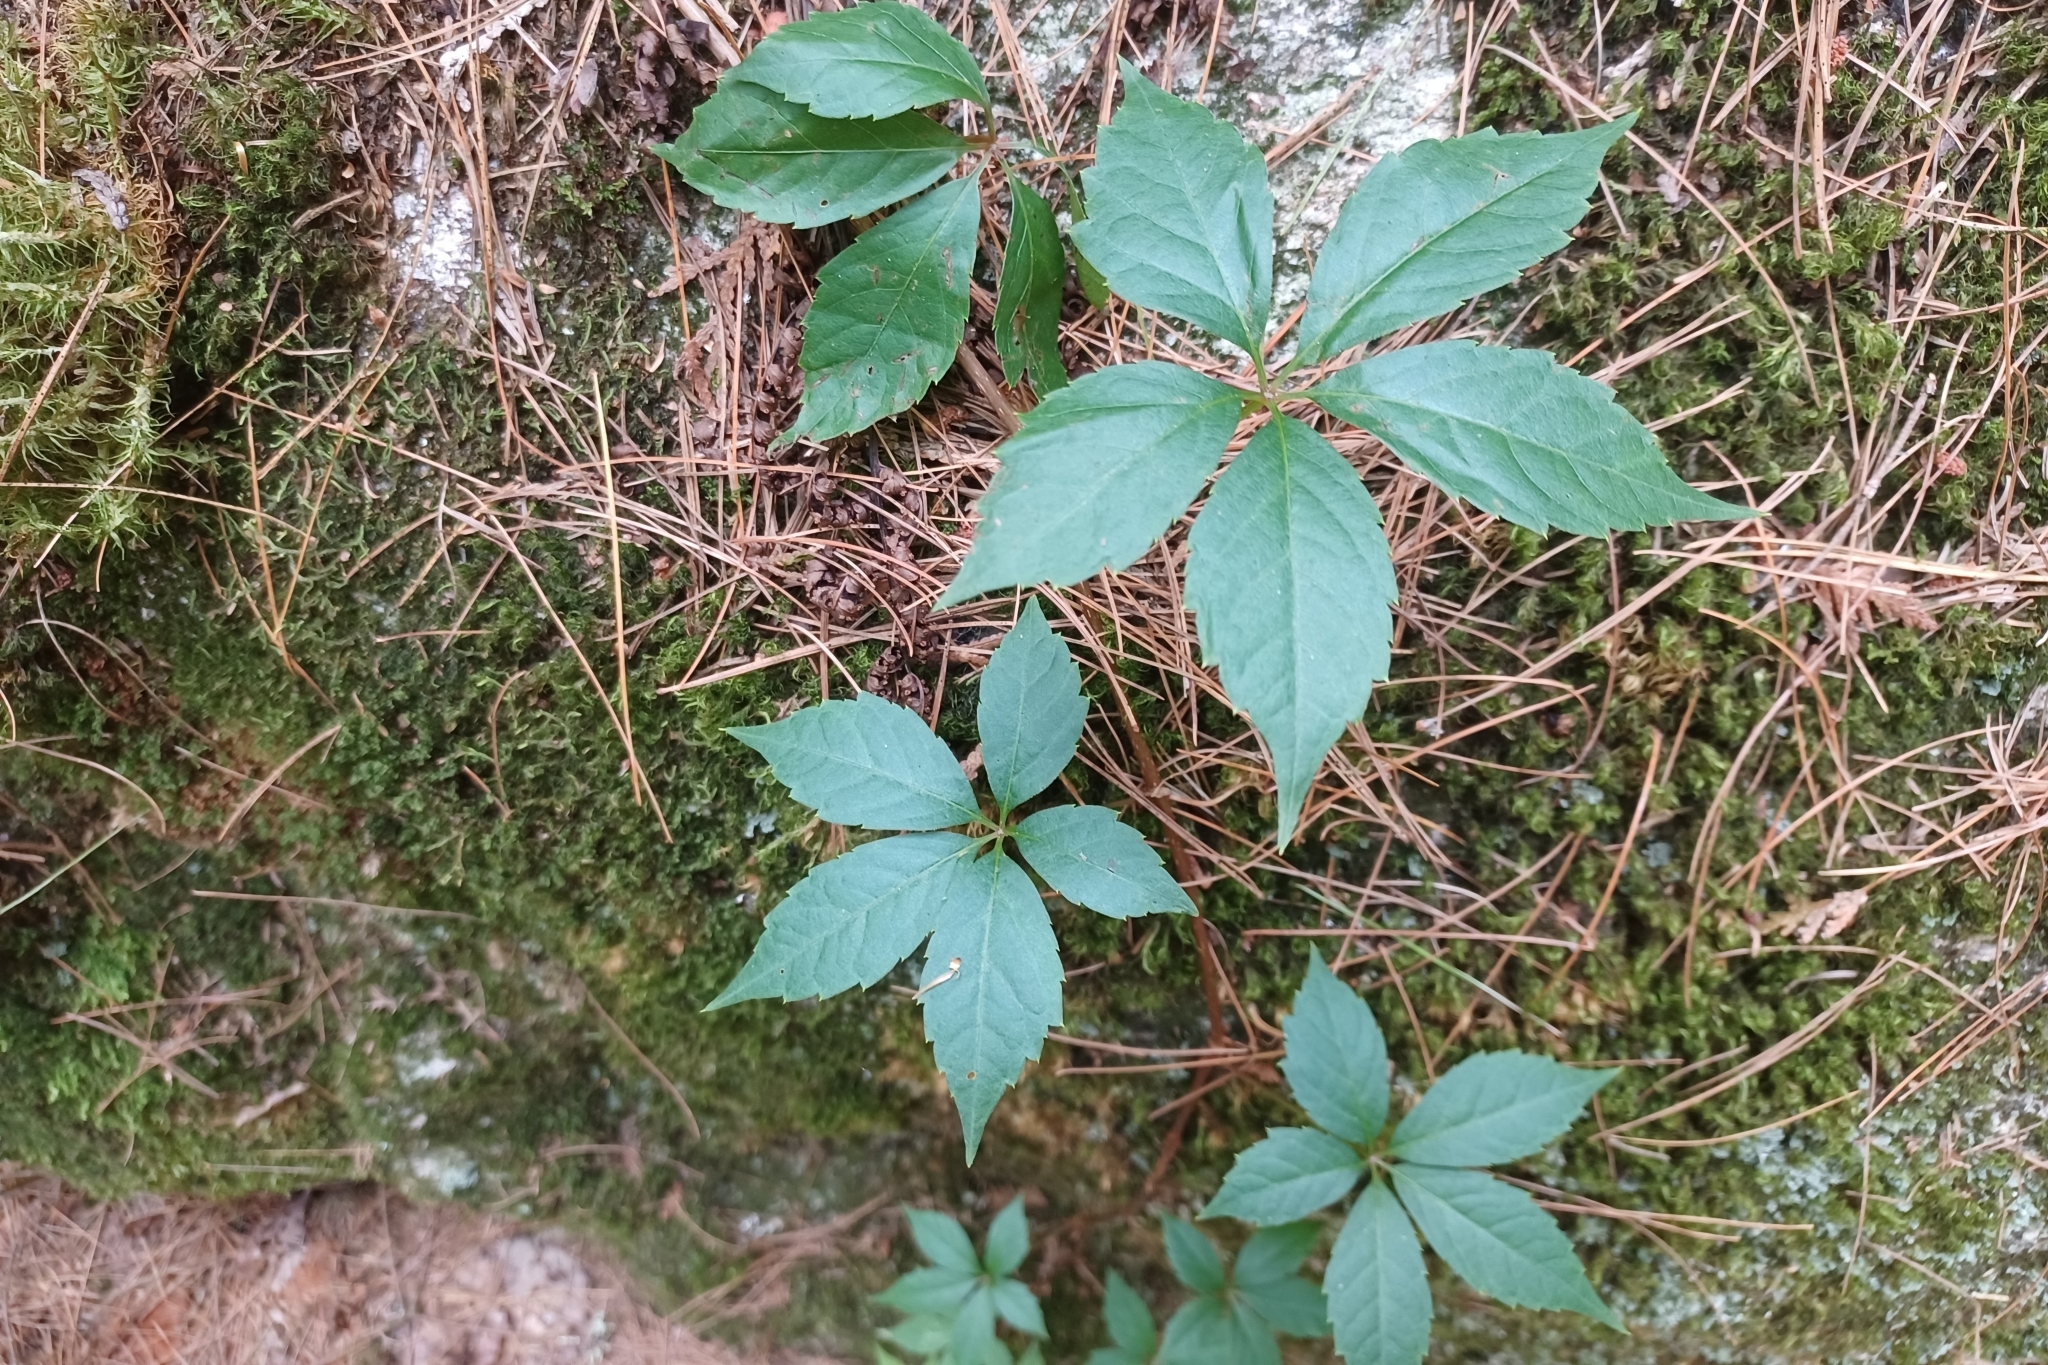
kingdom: Plantae
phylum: Tracheophyta
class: Magnoliopsida
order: Vitales
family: Vitaceae
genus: Parthenocissus
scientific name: Parthenocissus inserta
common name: False virginia-creeper
